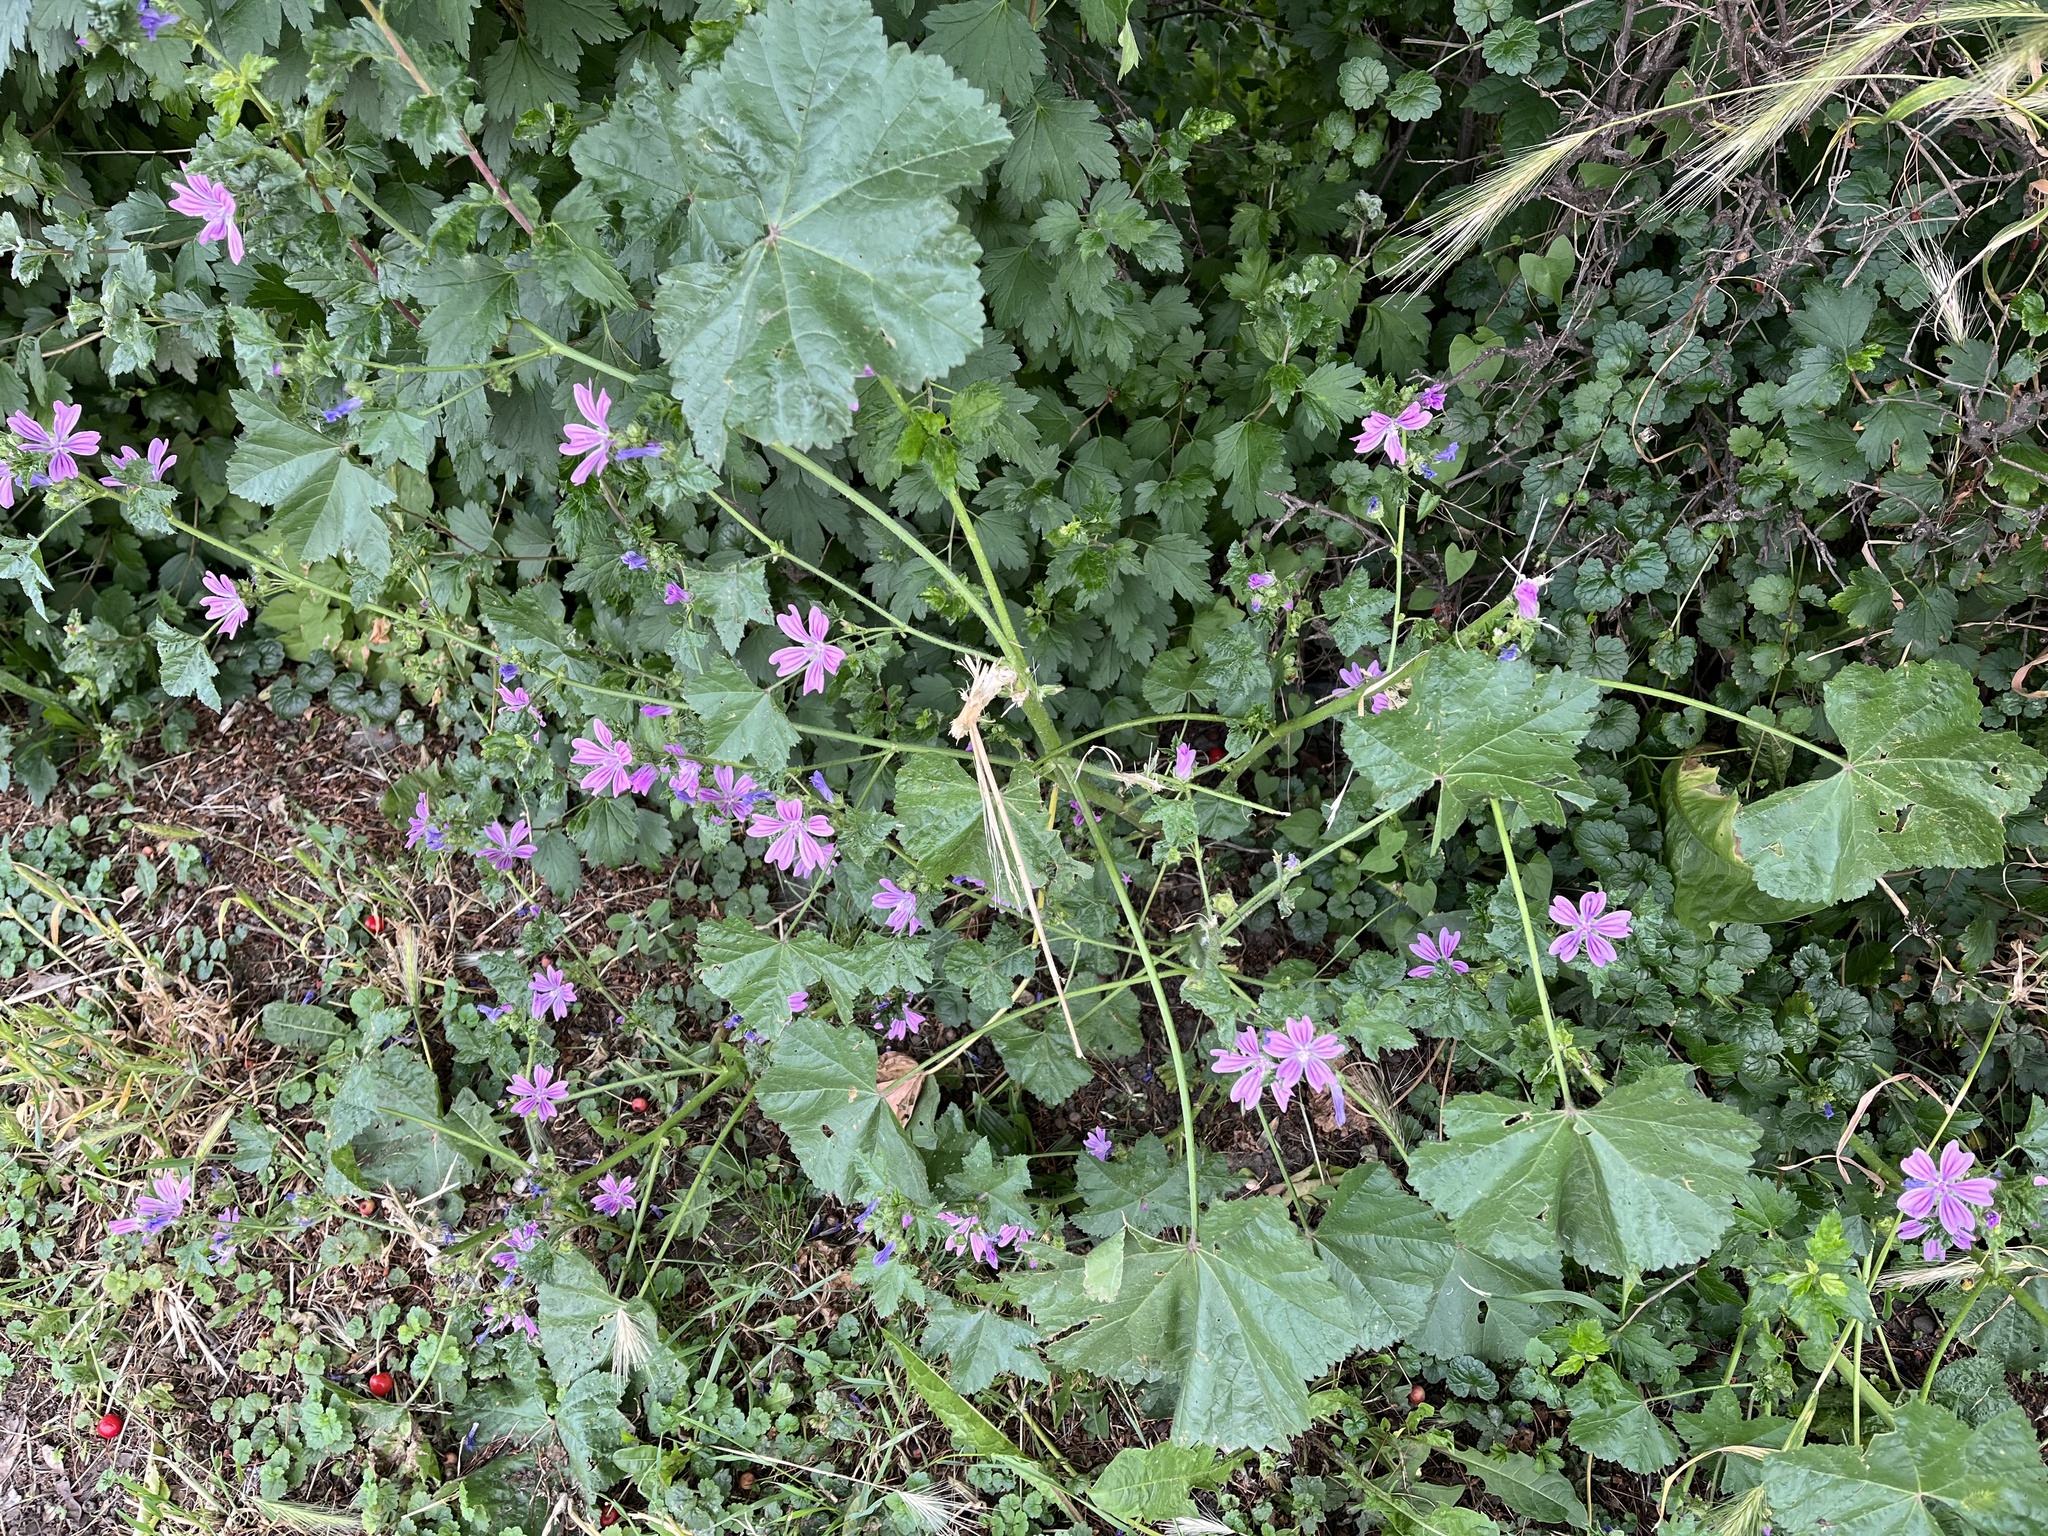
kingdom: Plantae
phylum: Tracheophyta
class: Magnoliopsida
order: Malvales
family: Malvaceae
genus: Malva
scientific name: Malva sylvestris
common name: Common mallow
